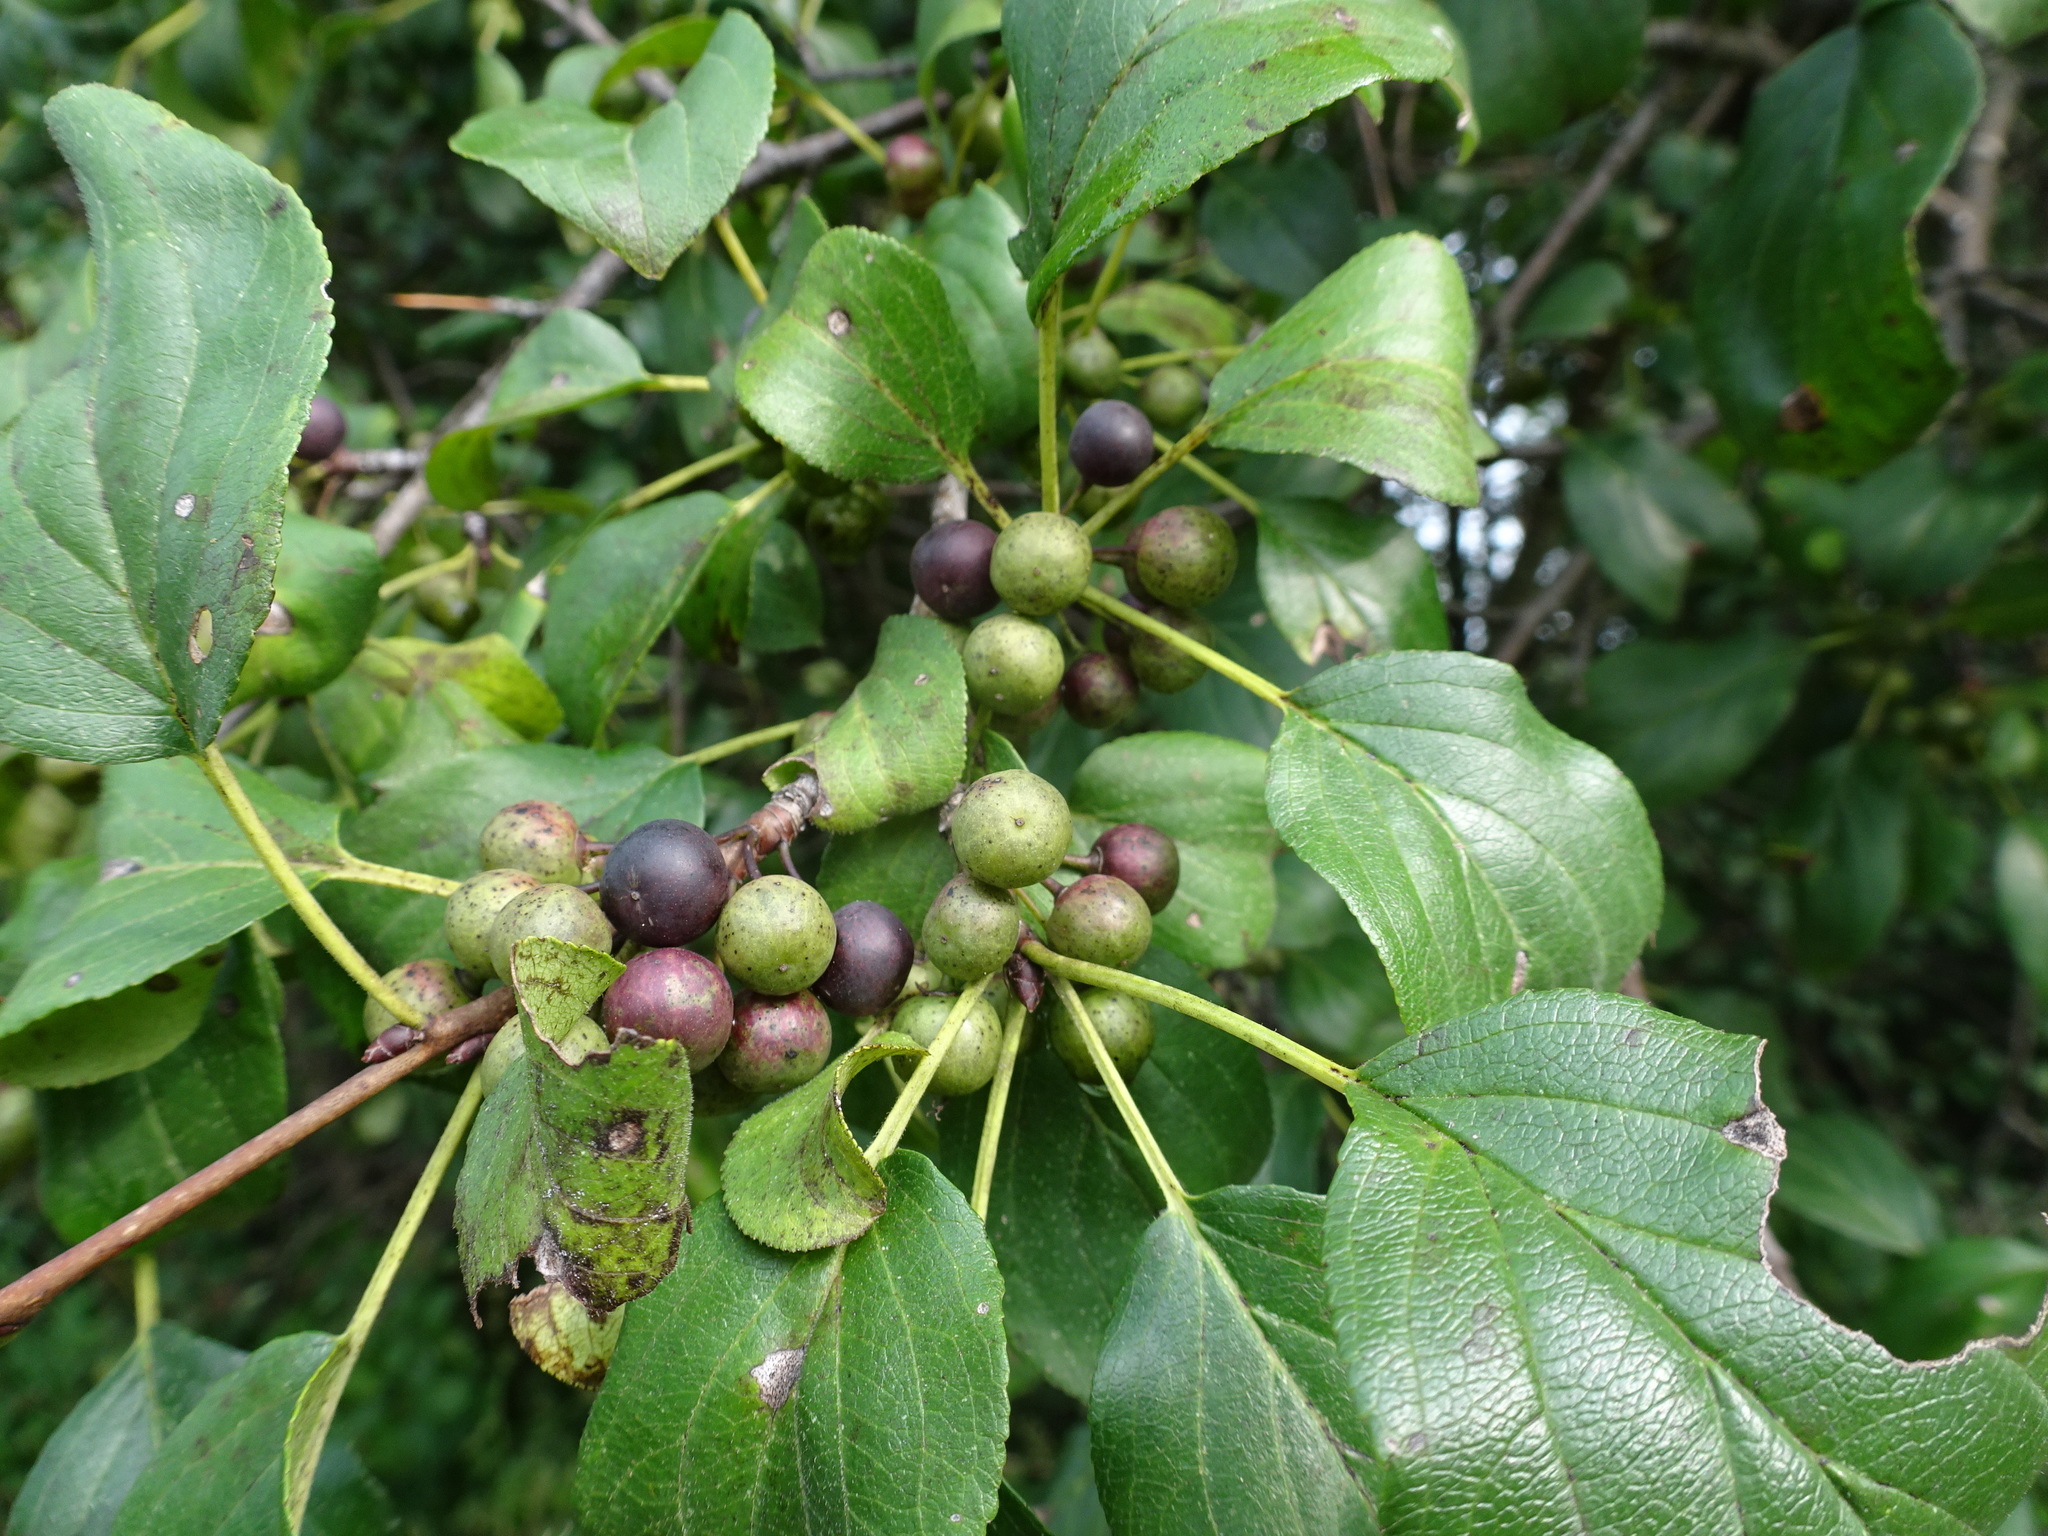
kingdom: Plantae
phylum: Tracheophyta
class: Magnoliopsida
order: Rosales
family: Rhamnaceae
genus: Rhamnus
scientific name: Rhamnus cathartica
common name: Common buckthorn
